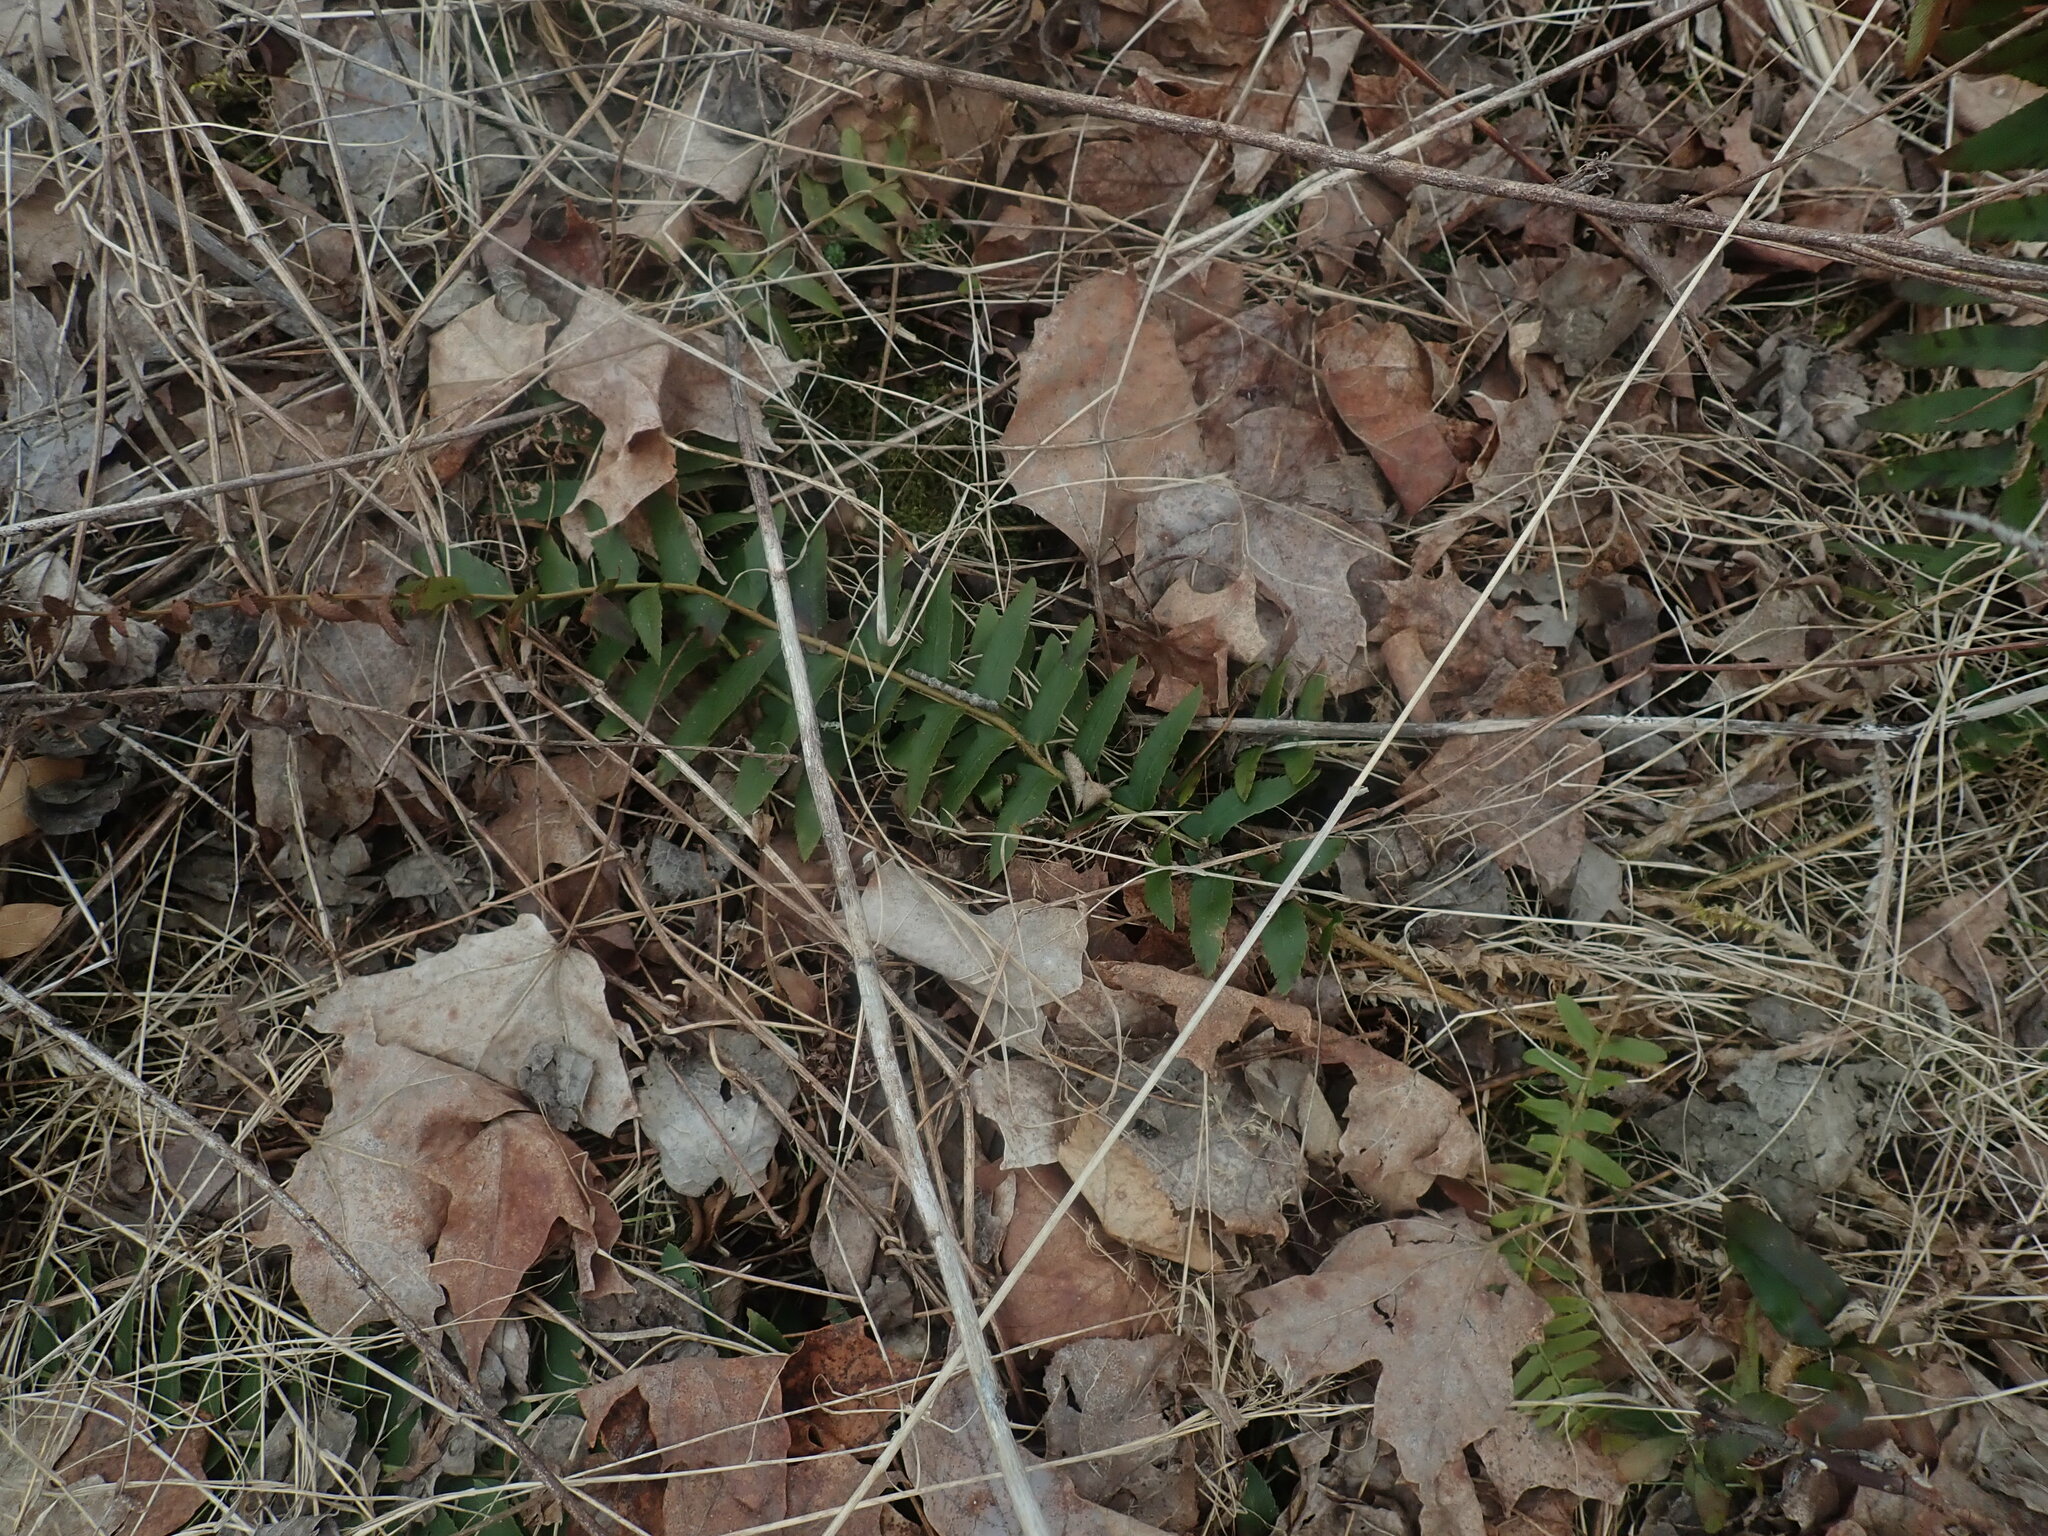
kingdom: Plantae
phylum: Tracheophyta
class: Polypodiopsida
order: Polypodiales
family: Dryopteridaceae
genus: Polystichum
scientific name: Polystichum acrostichoides
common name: Christmas fern
